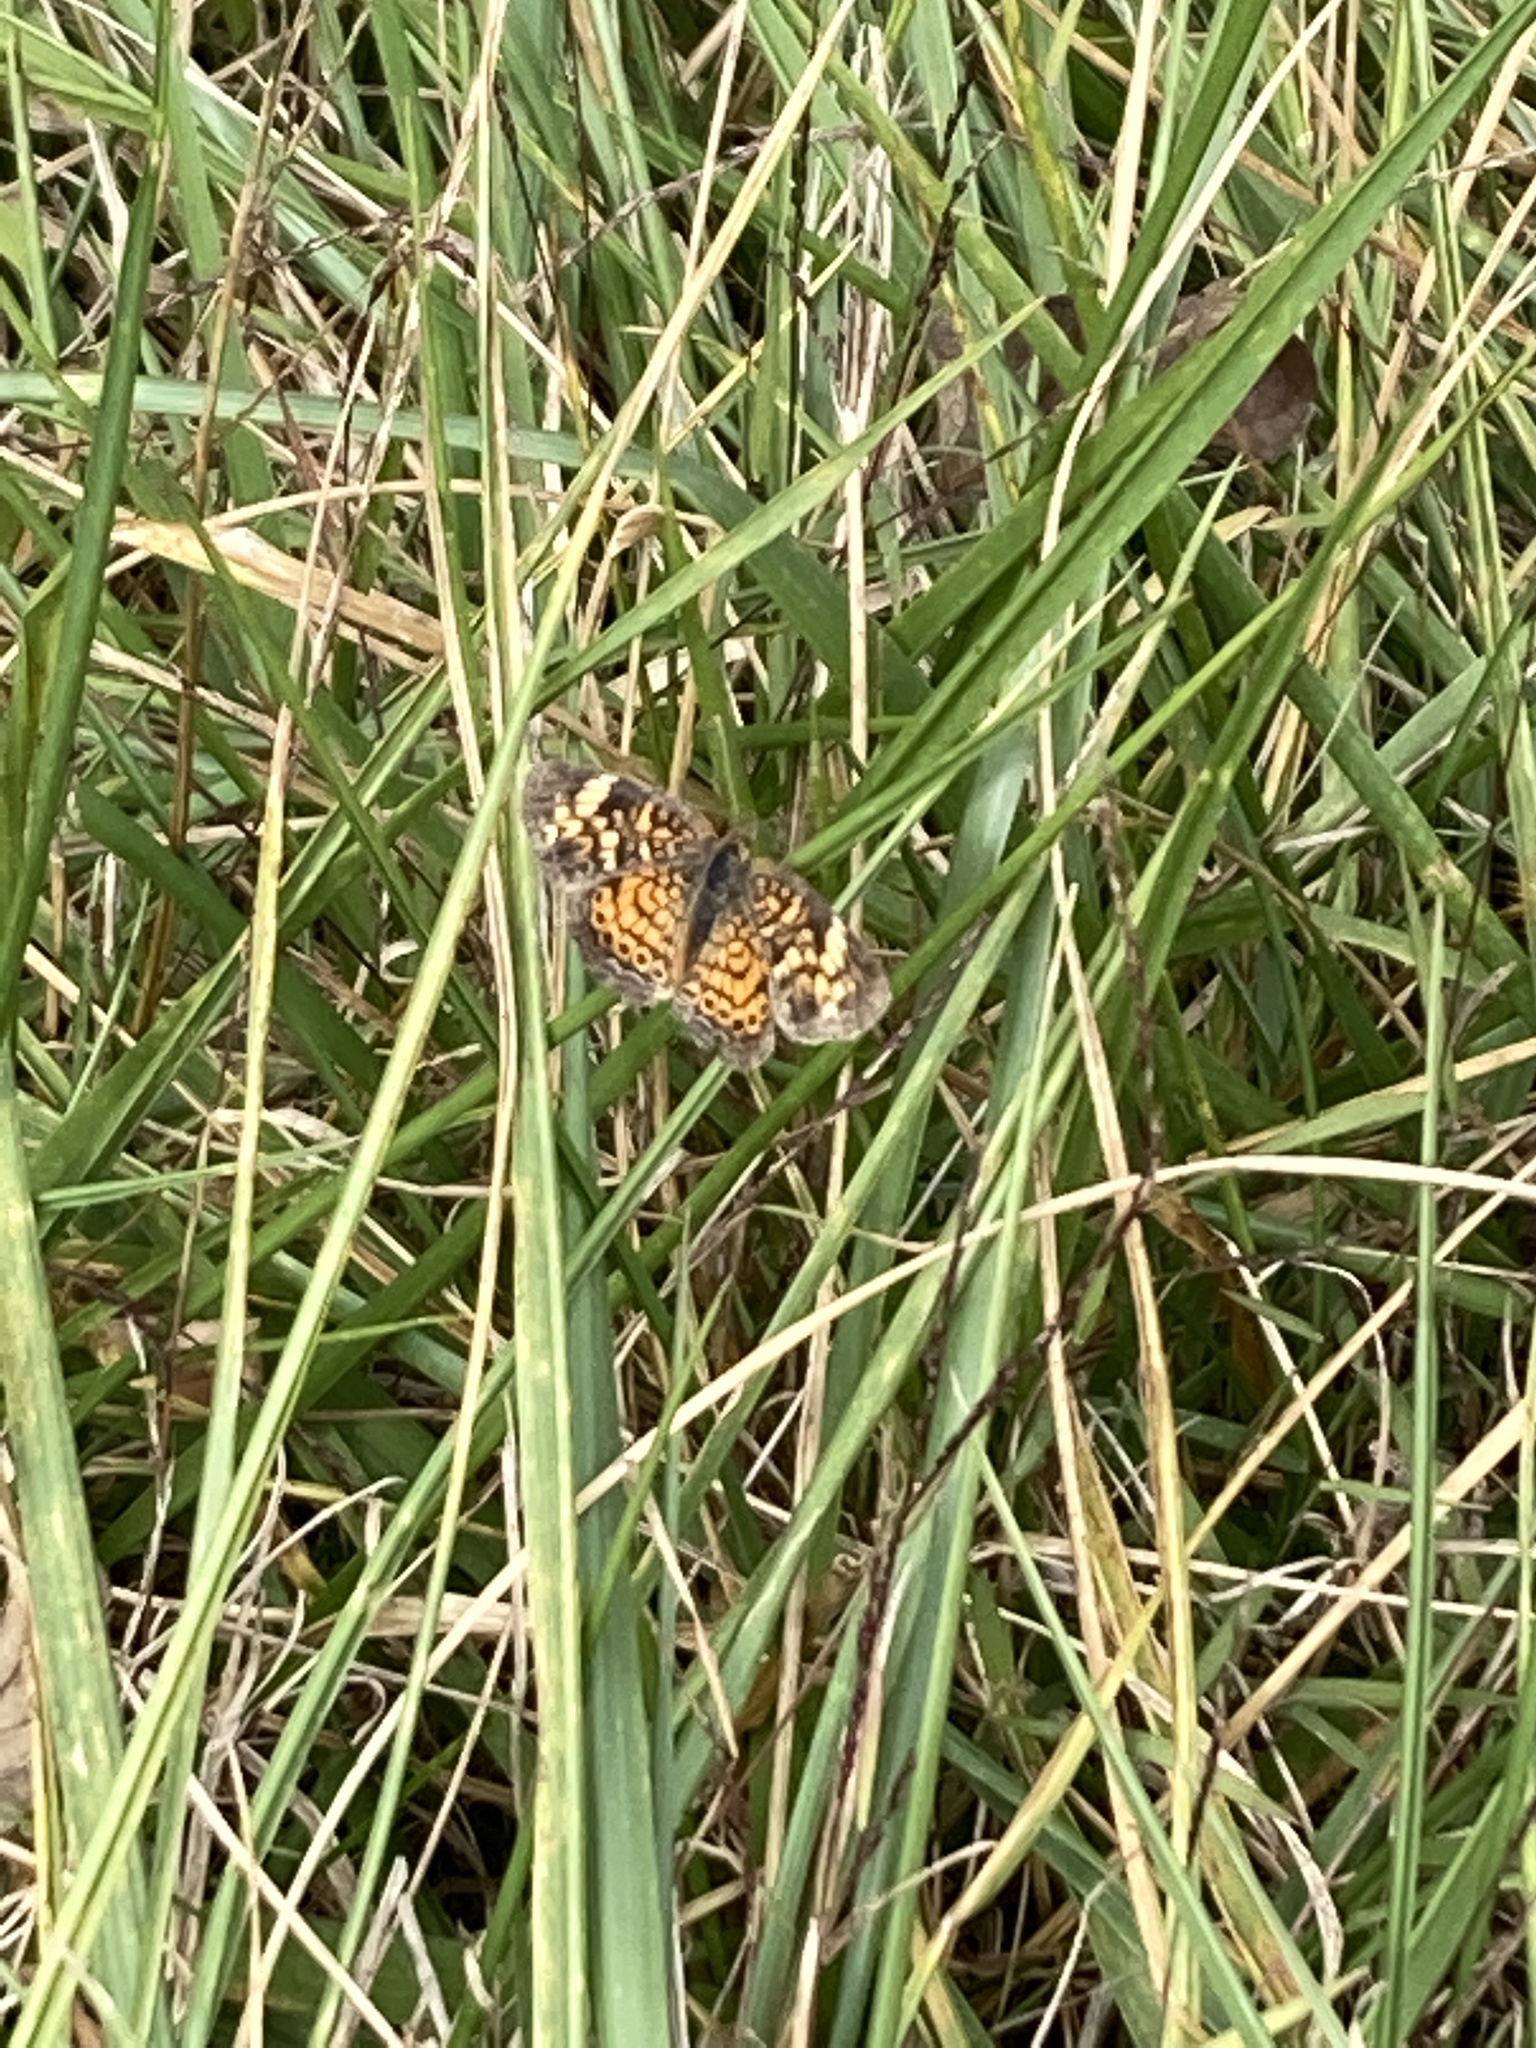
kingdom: Animalia
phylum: Arthropoda
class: Insecta
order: Lepidoptera
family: Nymphalidae
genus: Phyciodes
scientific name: Phyciodes tharos
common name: Pearl crescent
